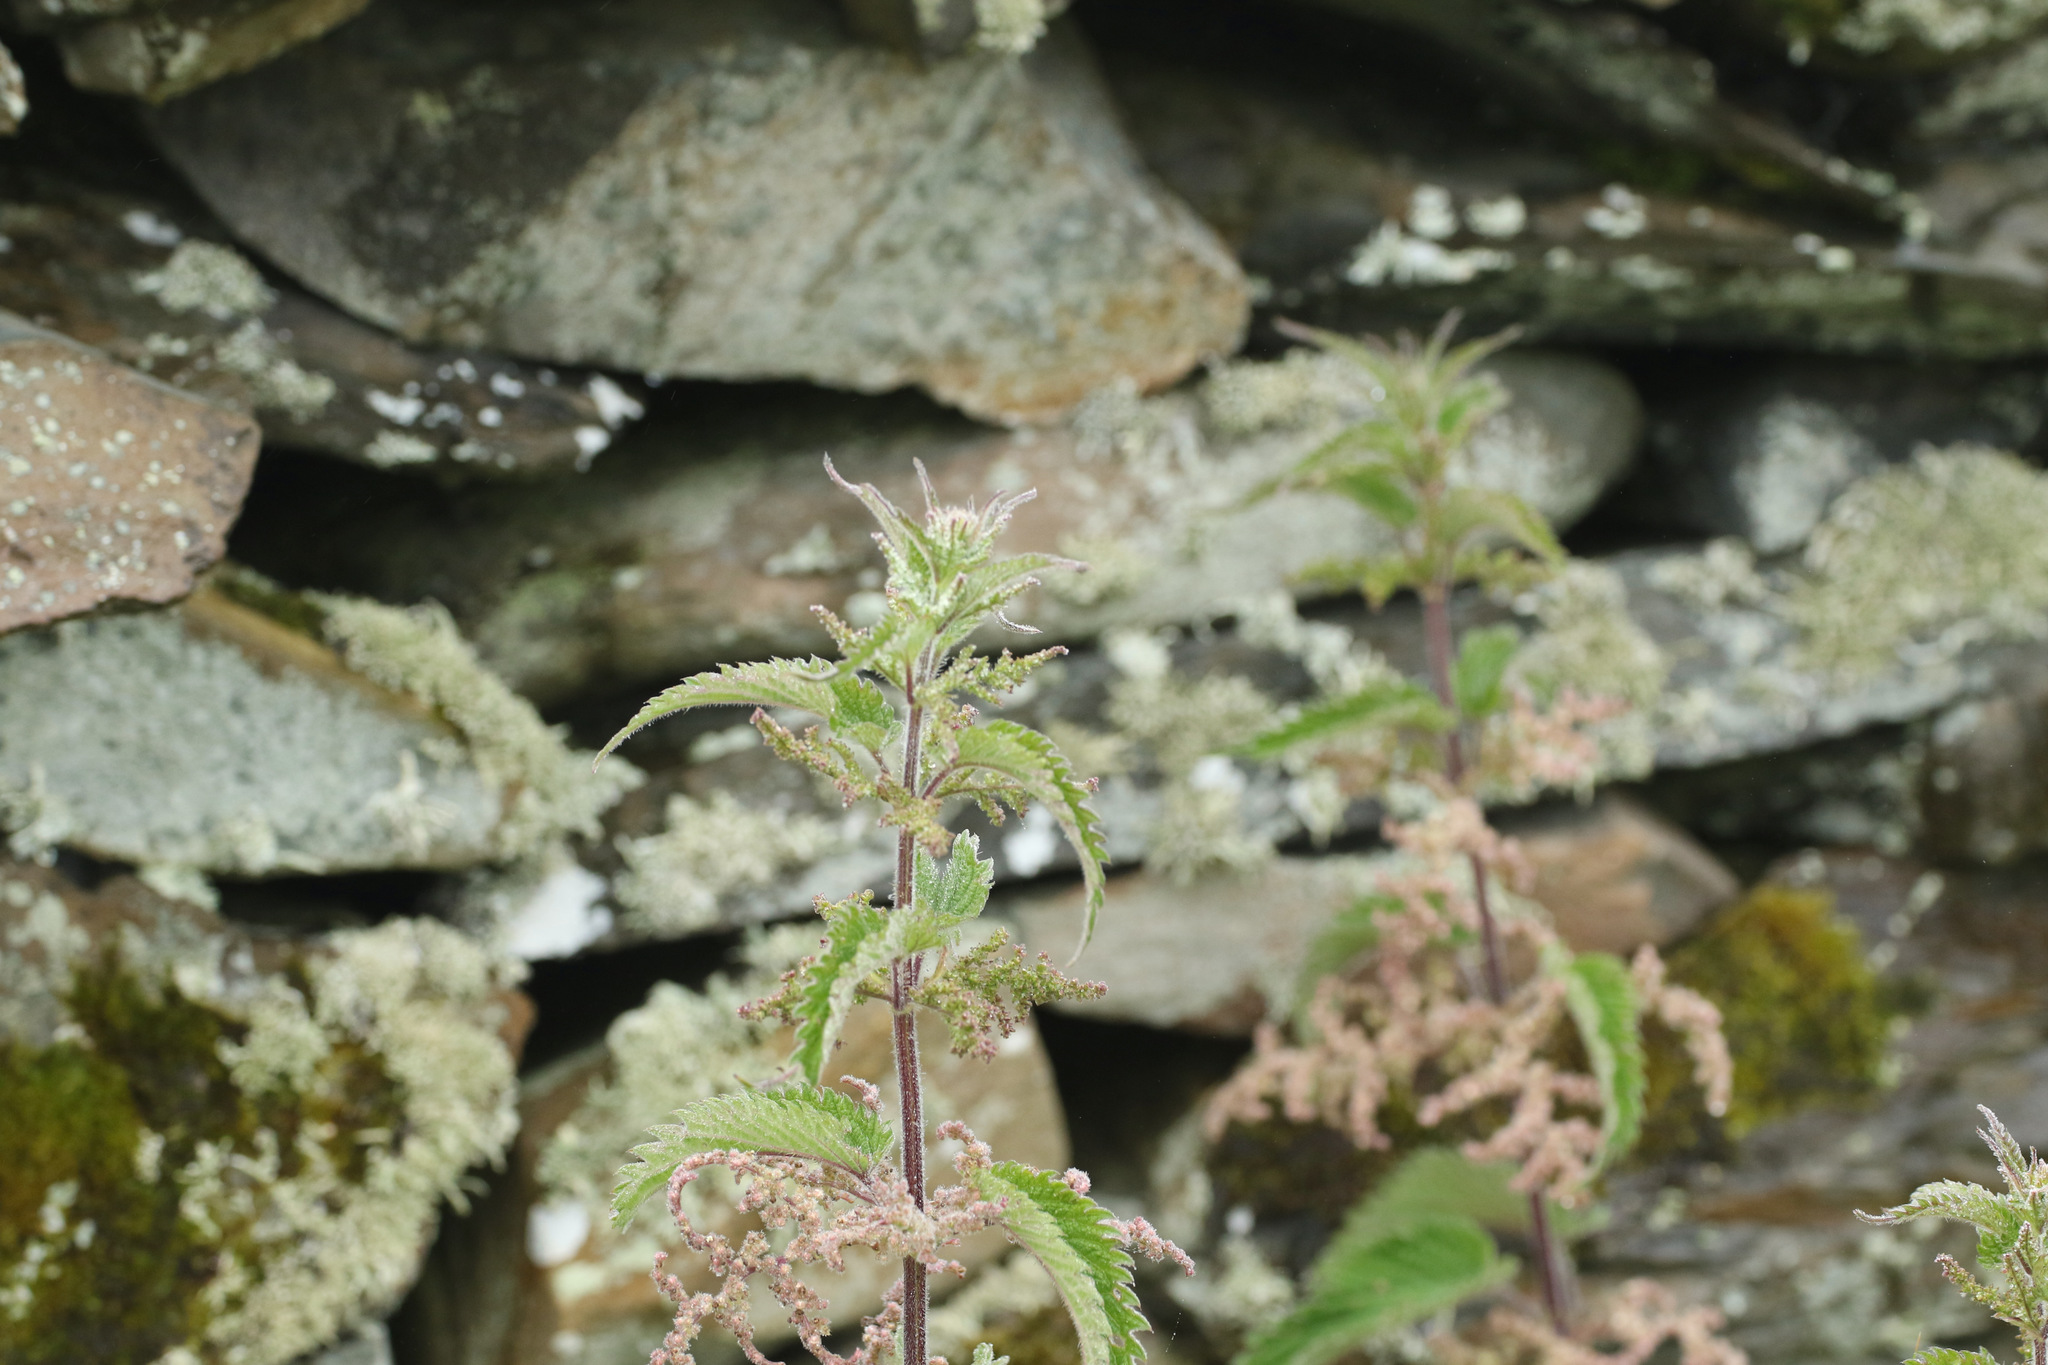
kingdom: Plantae
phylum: Tracheophyta
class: Magnoliopsida
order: Rosales
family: Urticaceae
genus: Urtica
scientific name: Urtica dioica
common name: Common nettle
